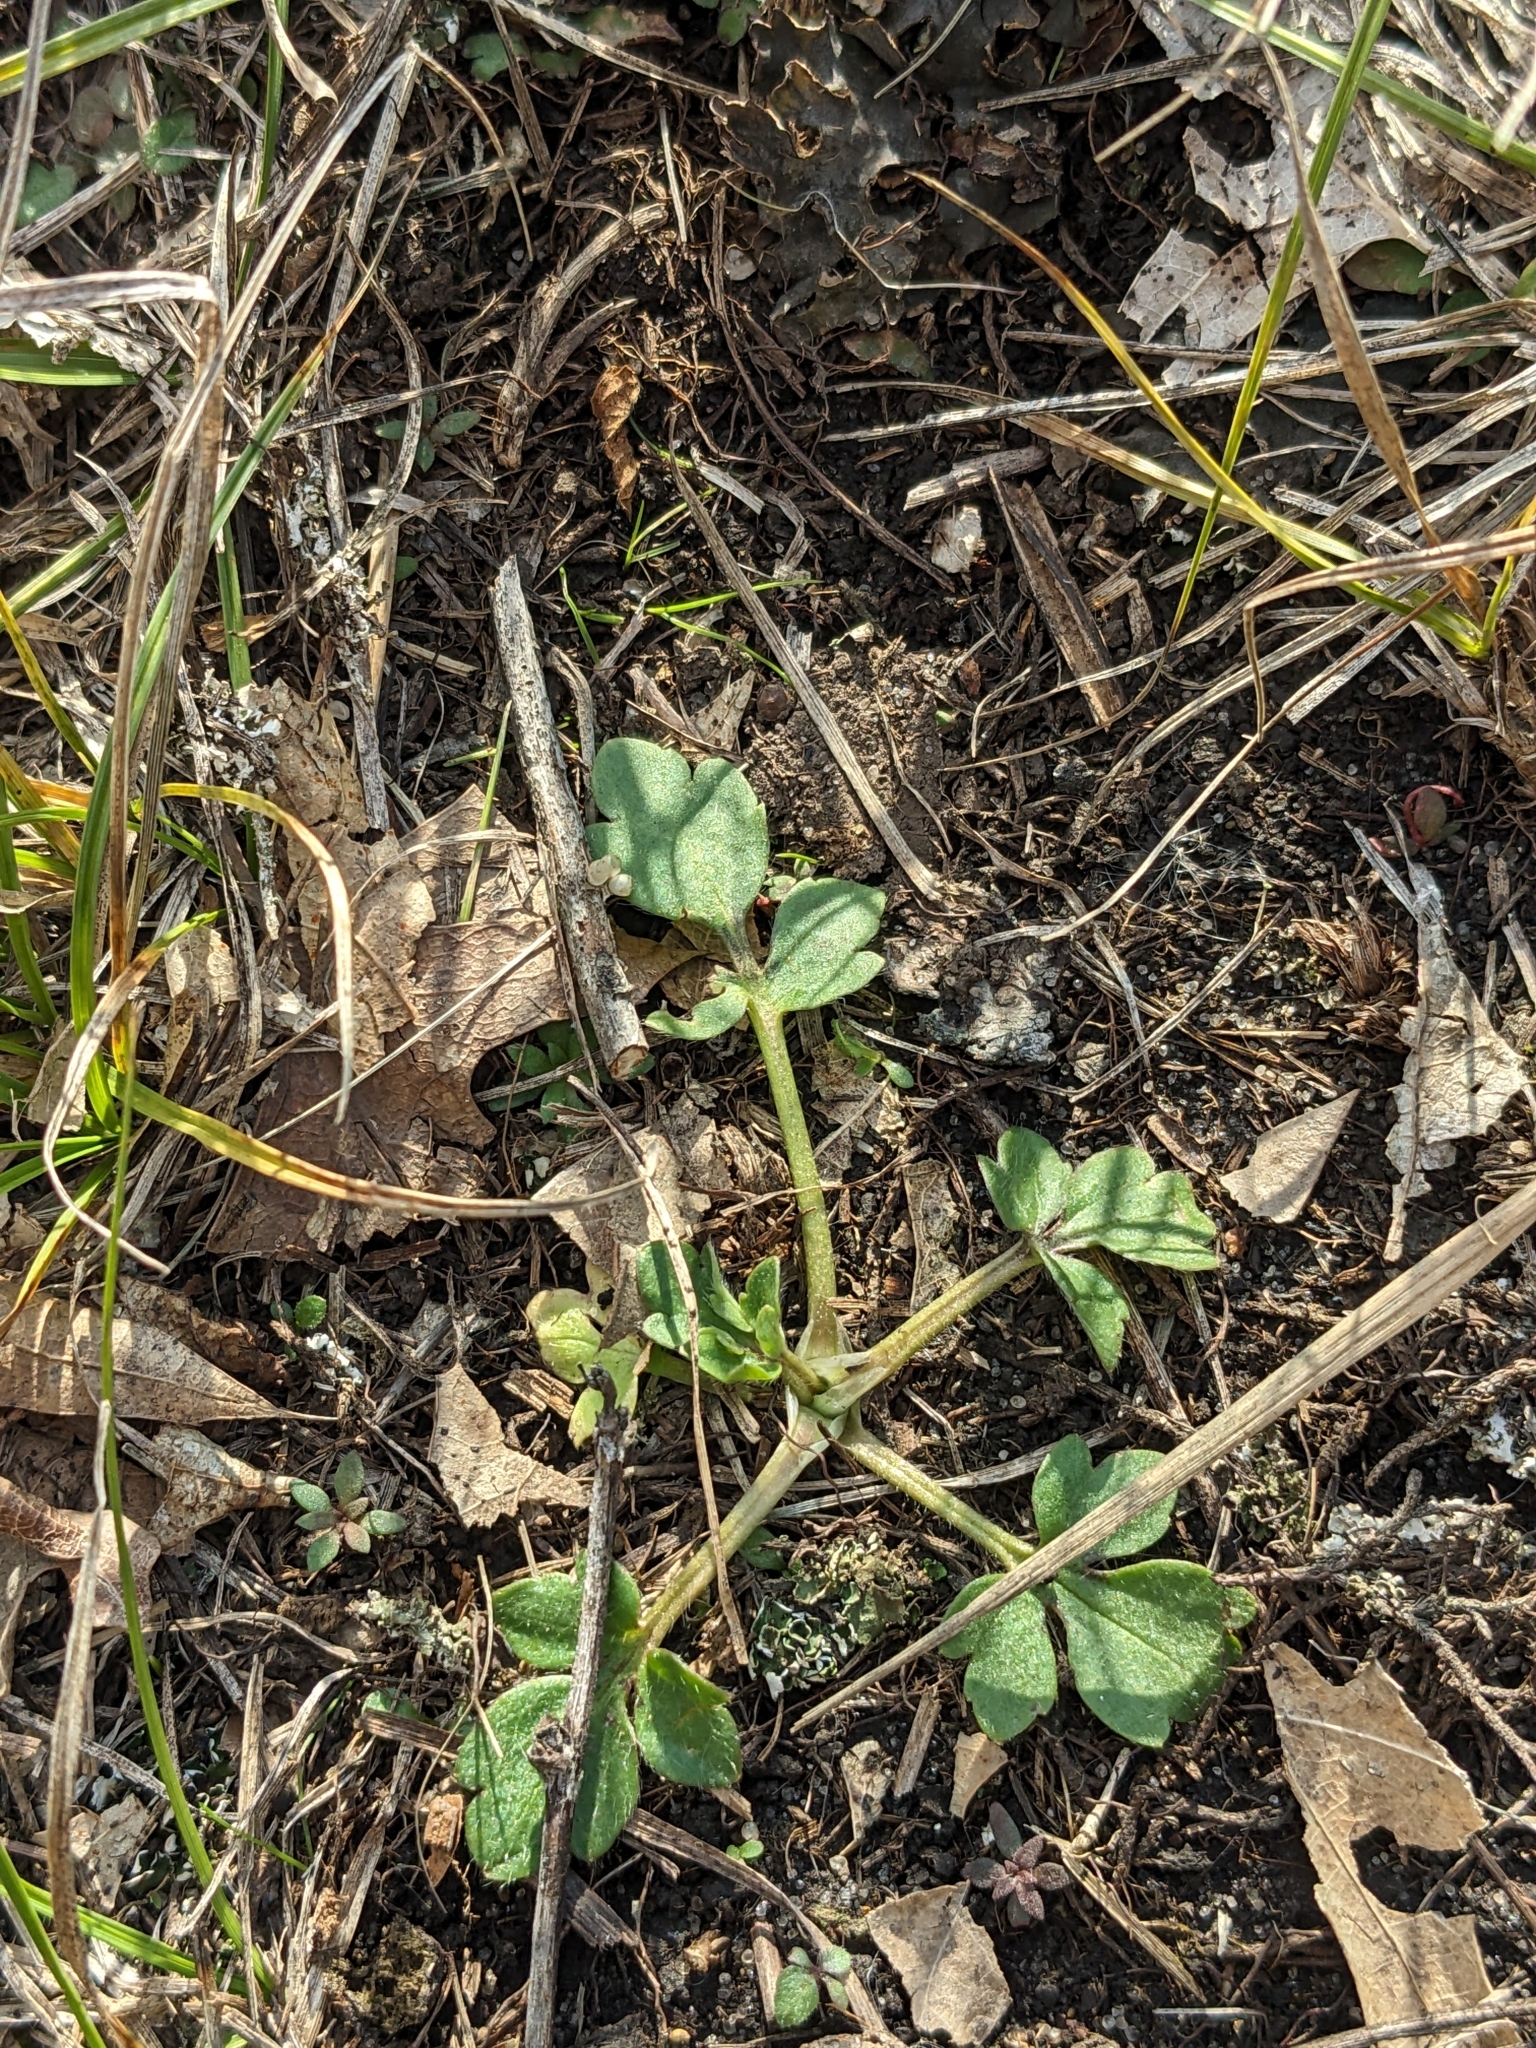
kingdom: Plantae
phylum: Tracheophyta
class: Magnoliopsida
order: Ranunculales
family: Ranunculaceae
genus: Ranunculus
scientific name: Ranunculus fascicularis
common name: Early buttercup
